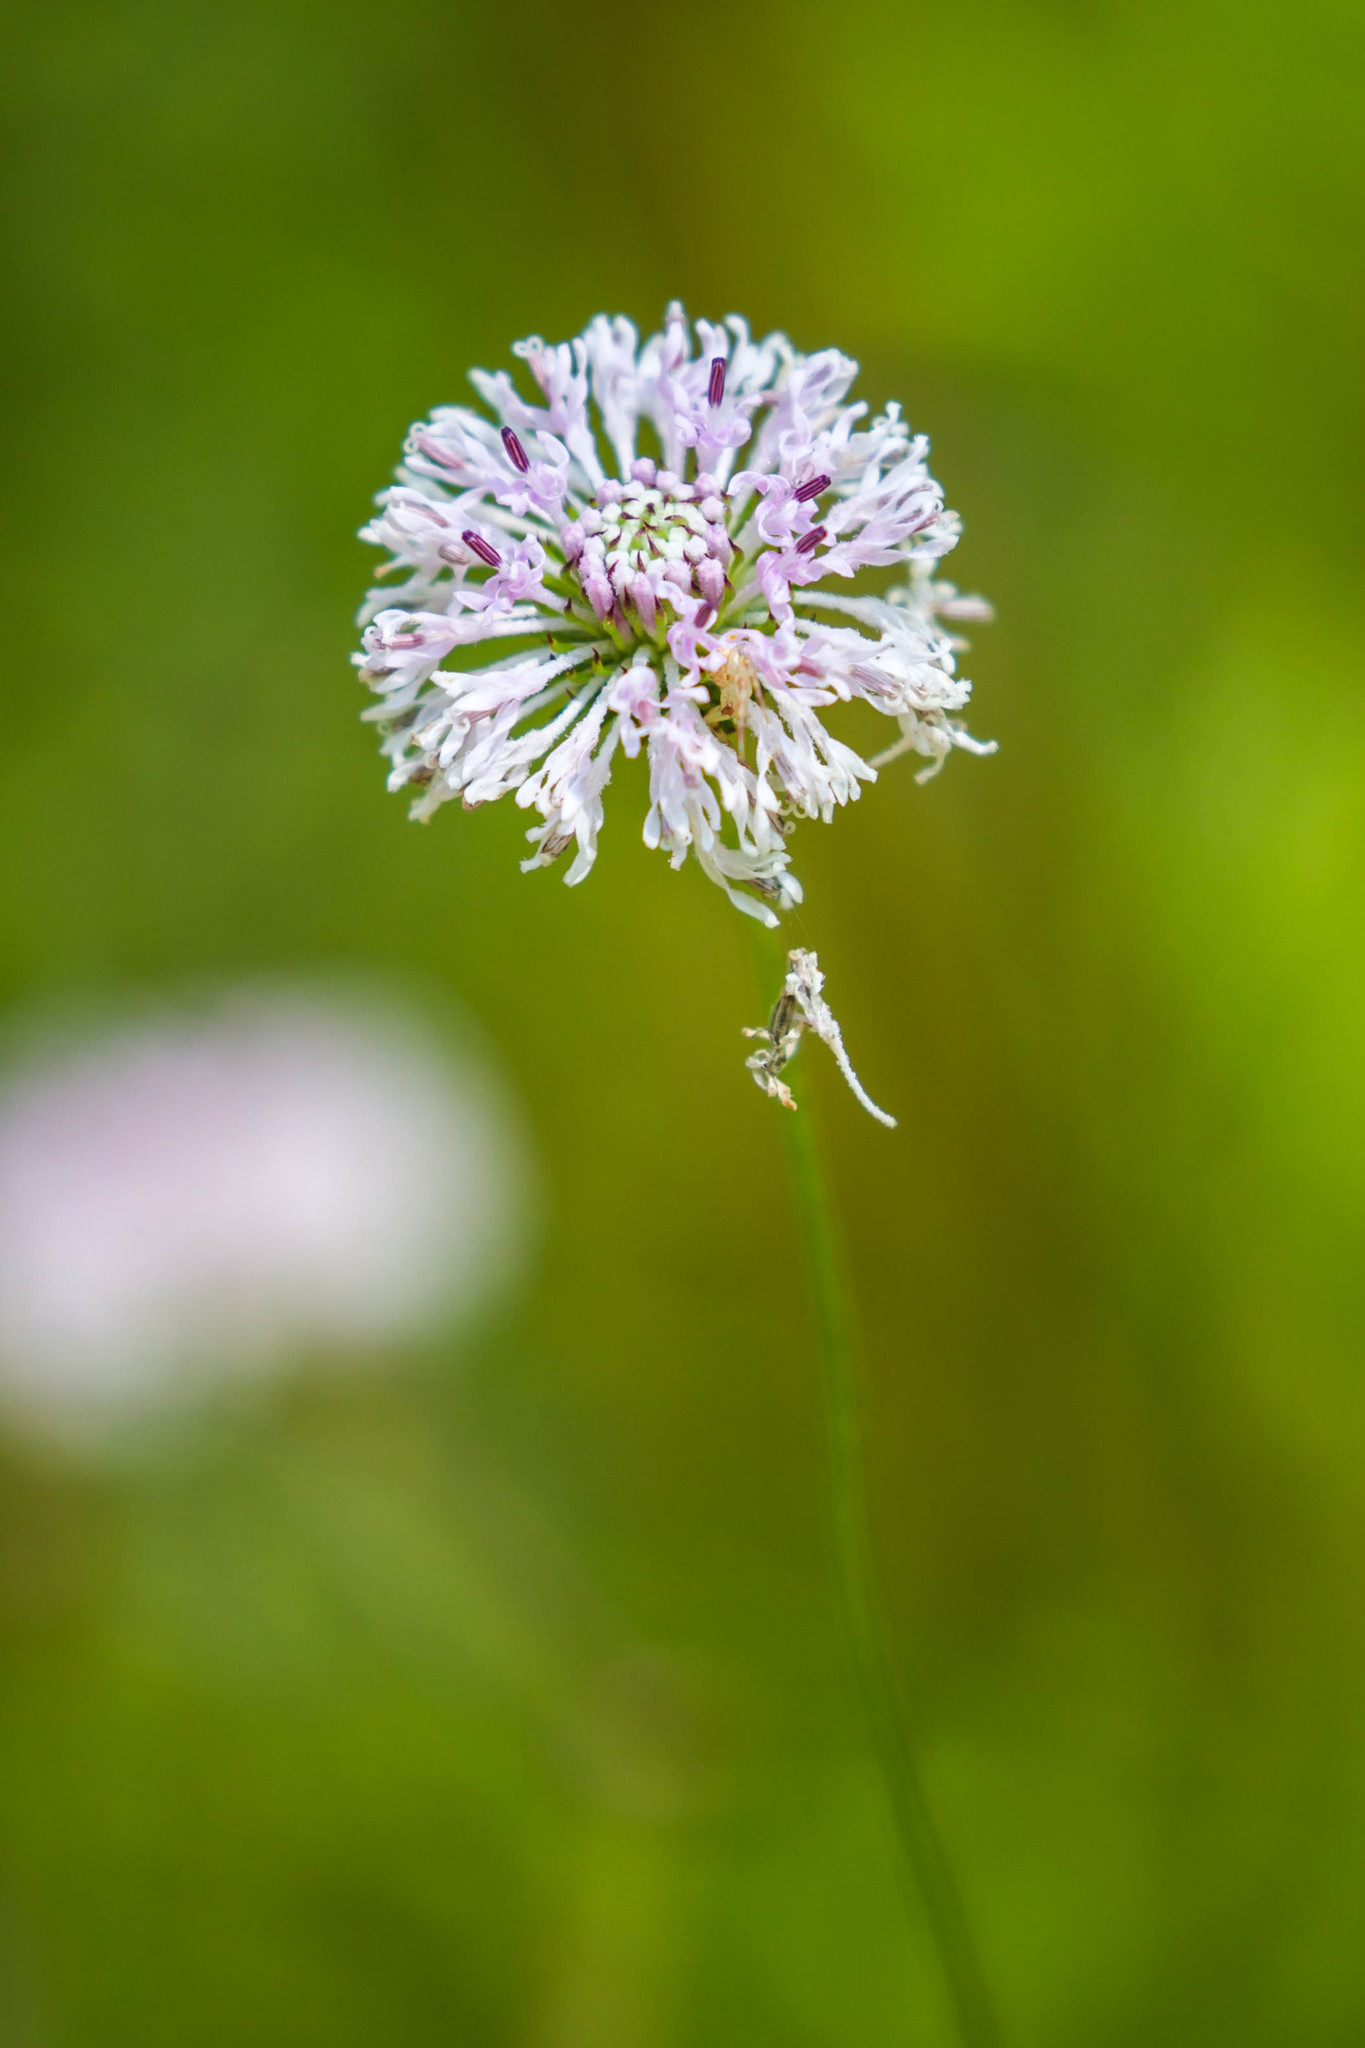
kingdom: Plantae
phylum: Tracheophyta
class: Magnoliopsida
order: Asterales
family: Asteraceae
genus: Marshallia
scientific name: Marshallia graminifolia
